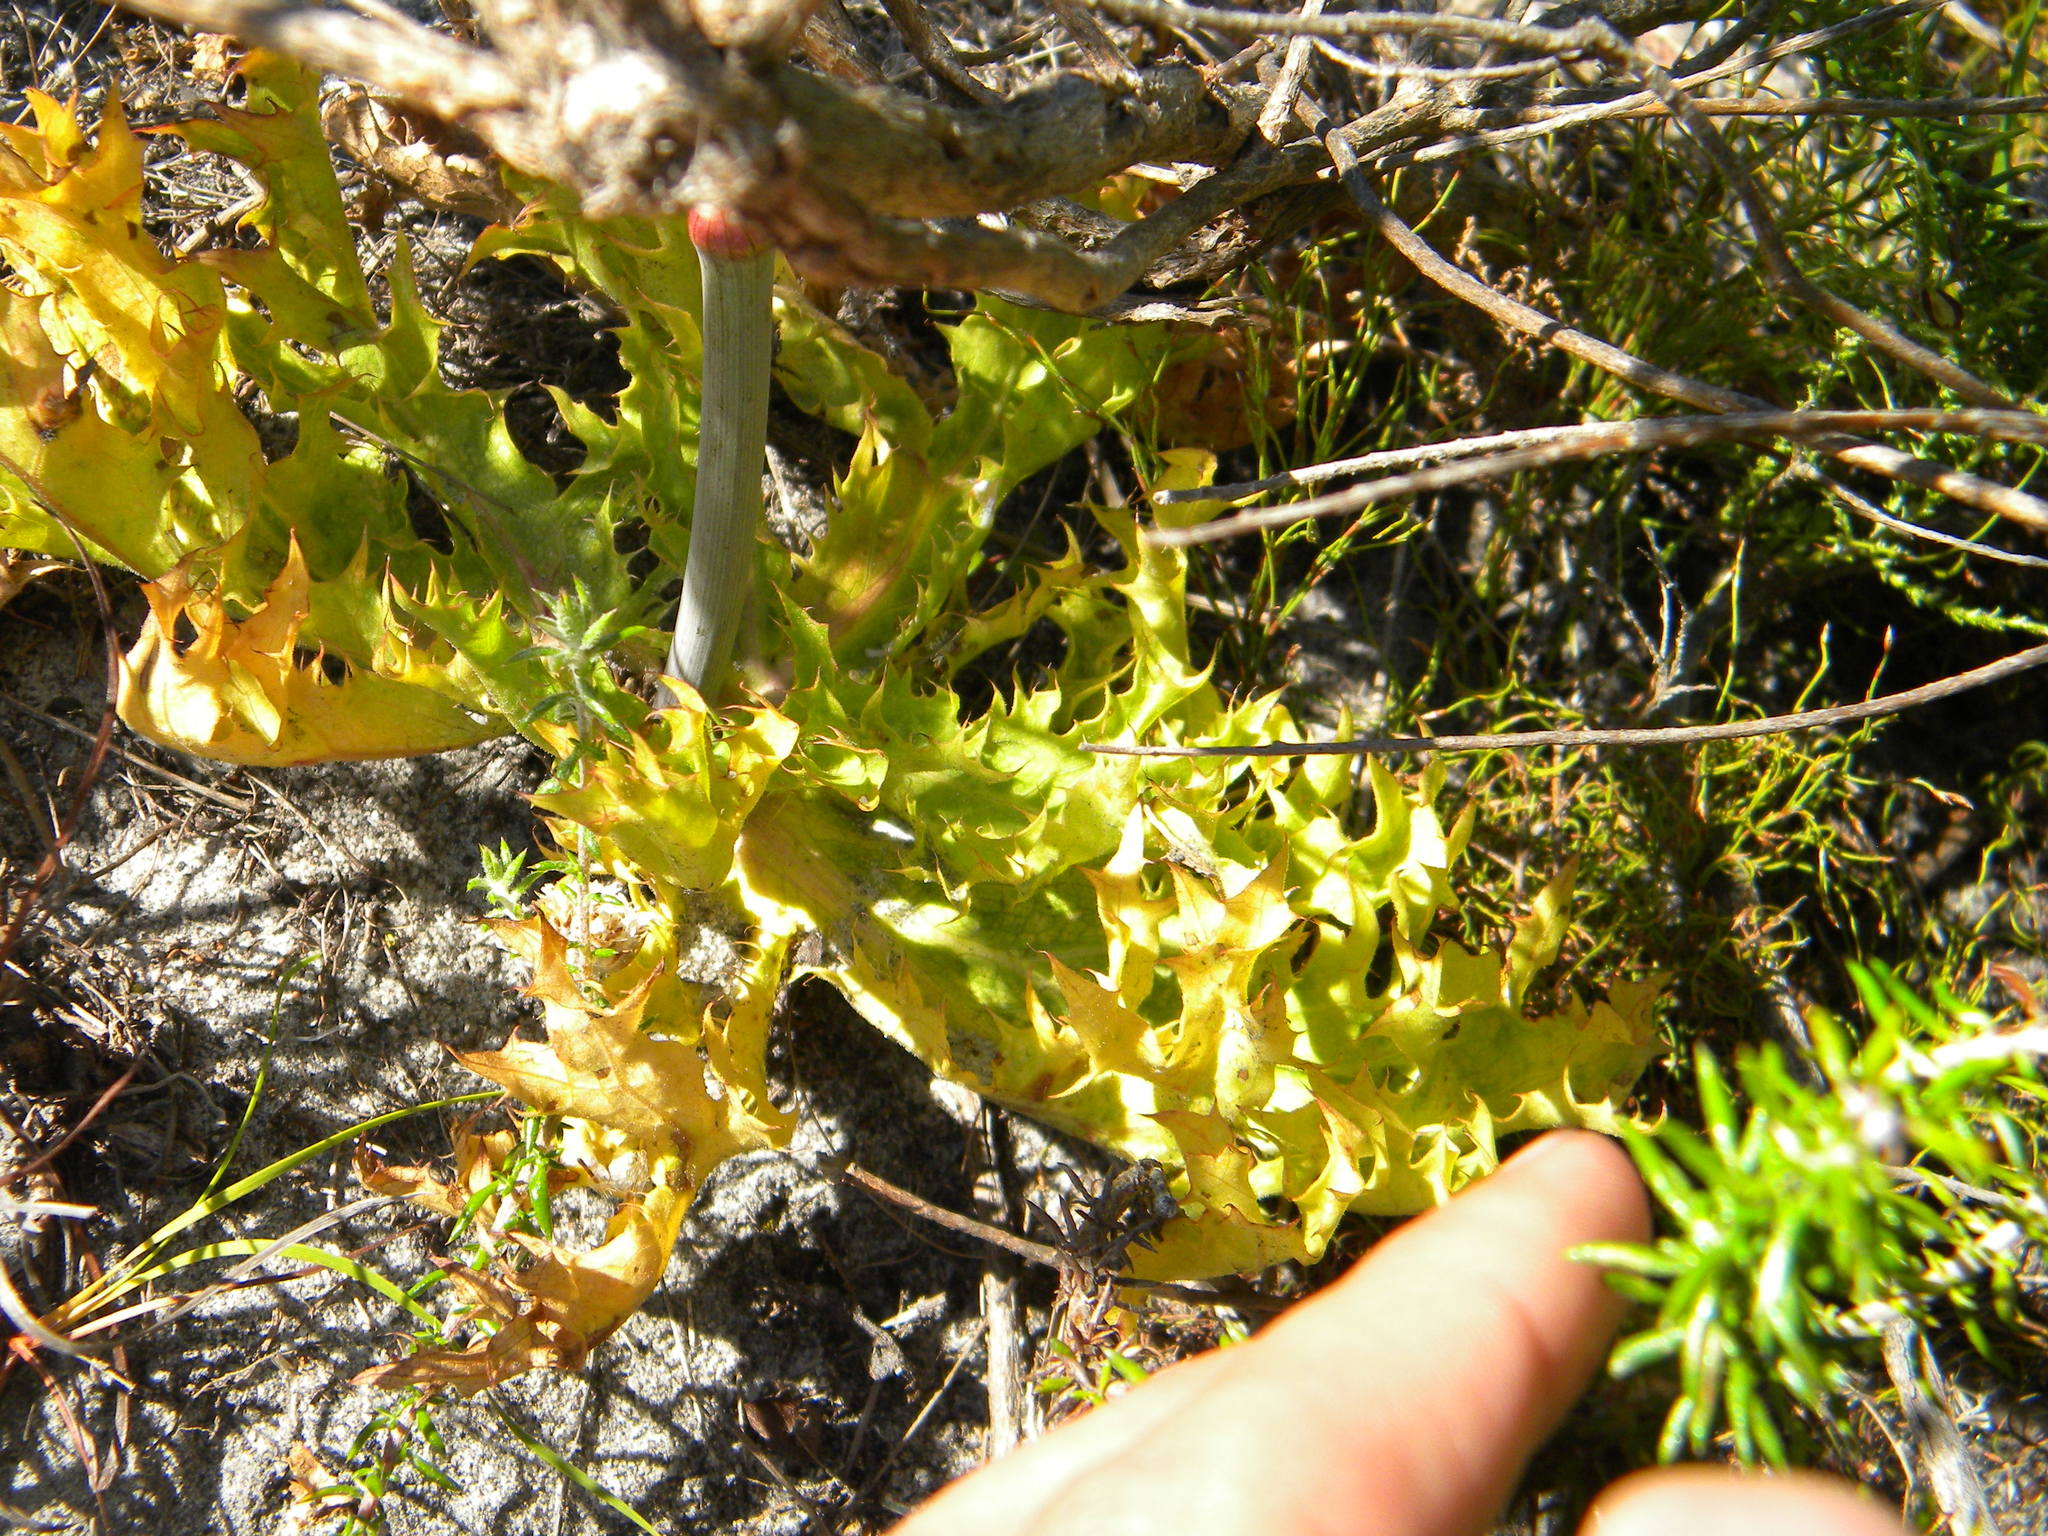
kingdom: Plantae
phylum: Tracheophyta
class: Magnoliopsida
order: Apiales
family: Apiaceae
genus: Lichtensteinia
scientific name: Lichtensteinia lacera
